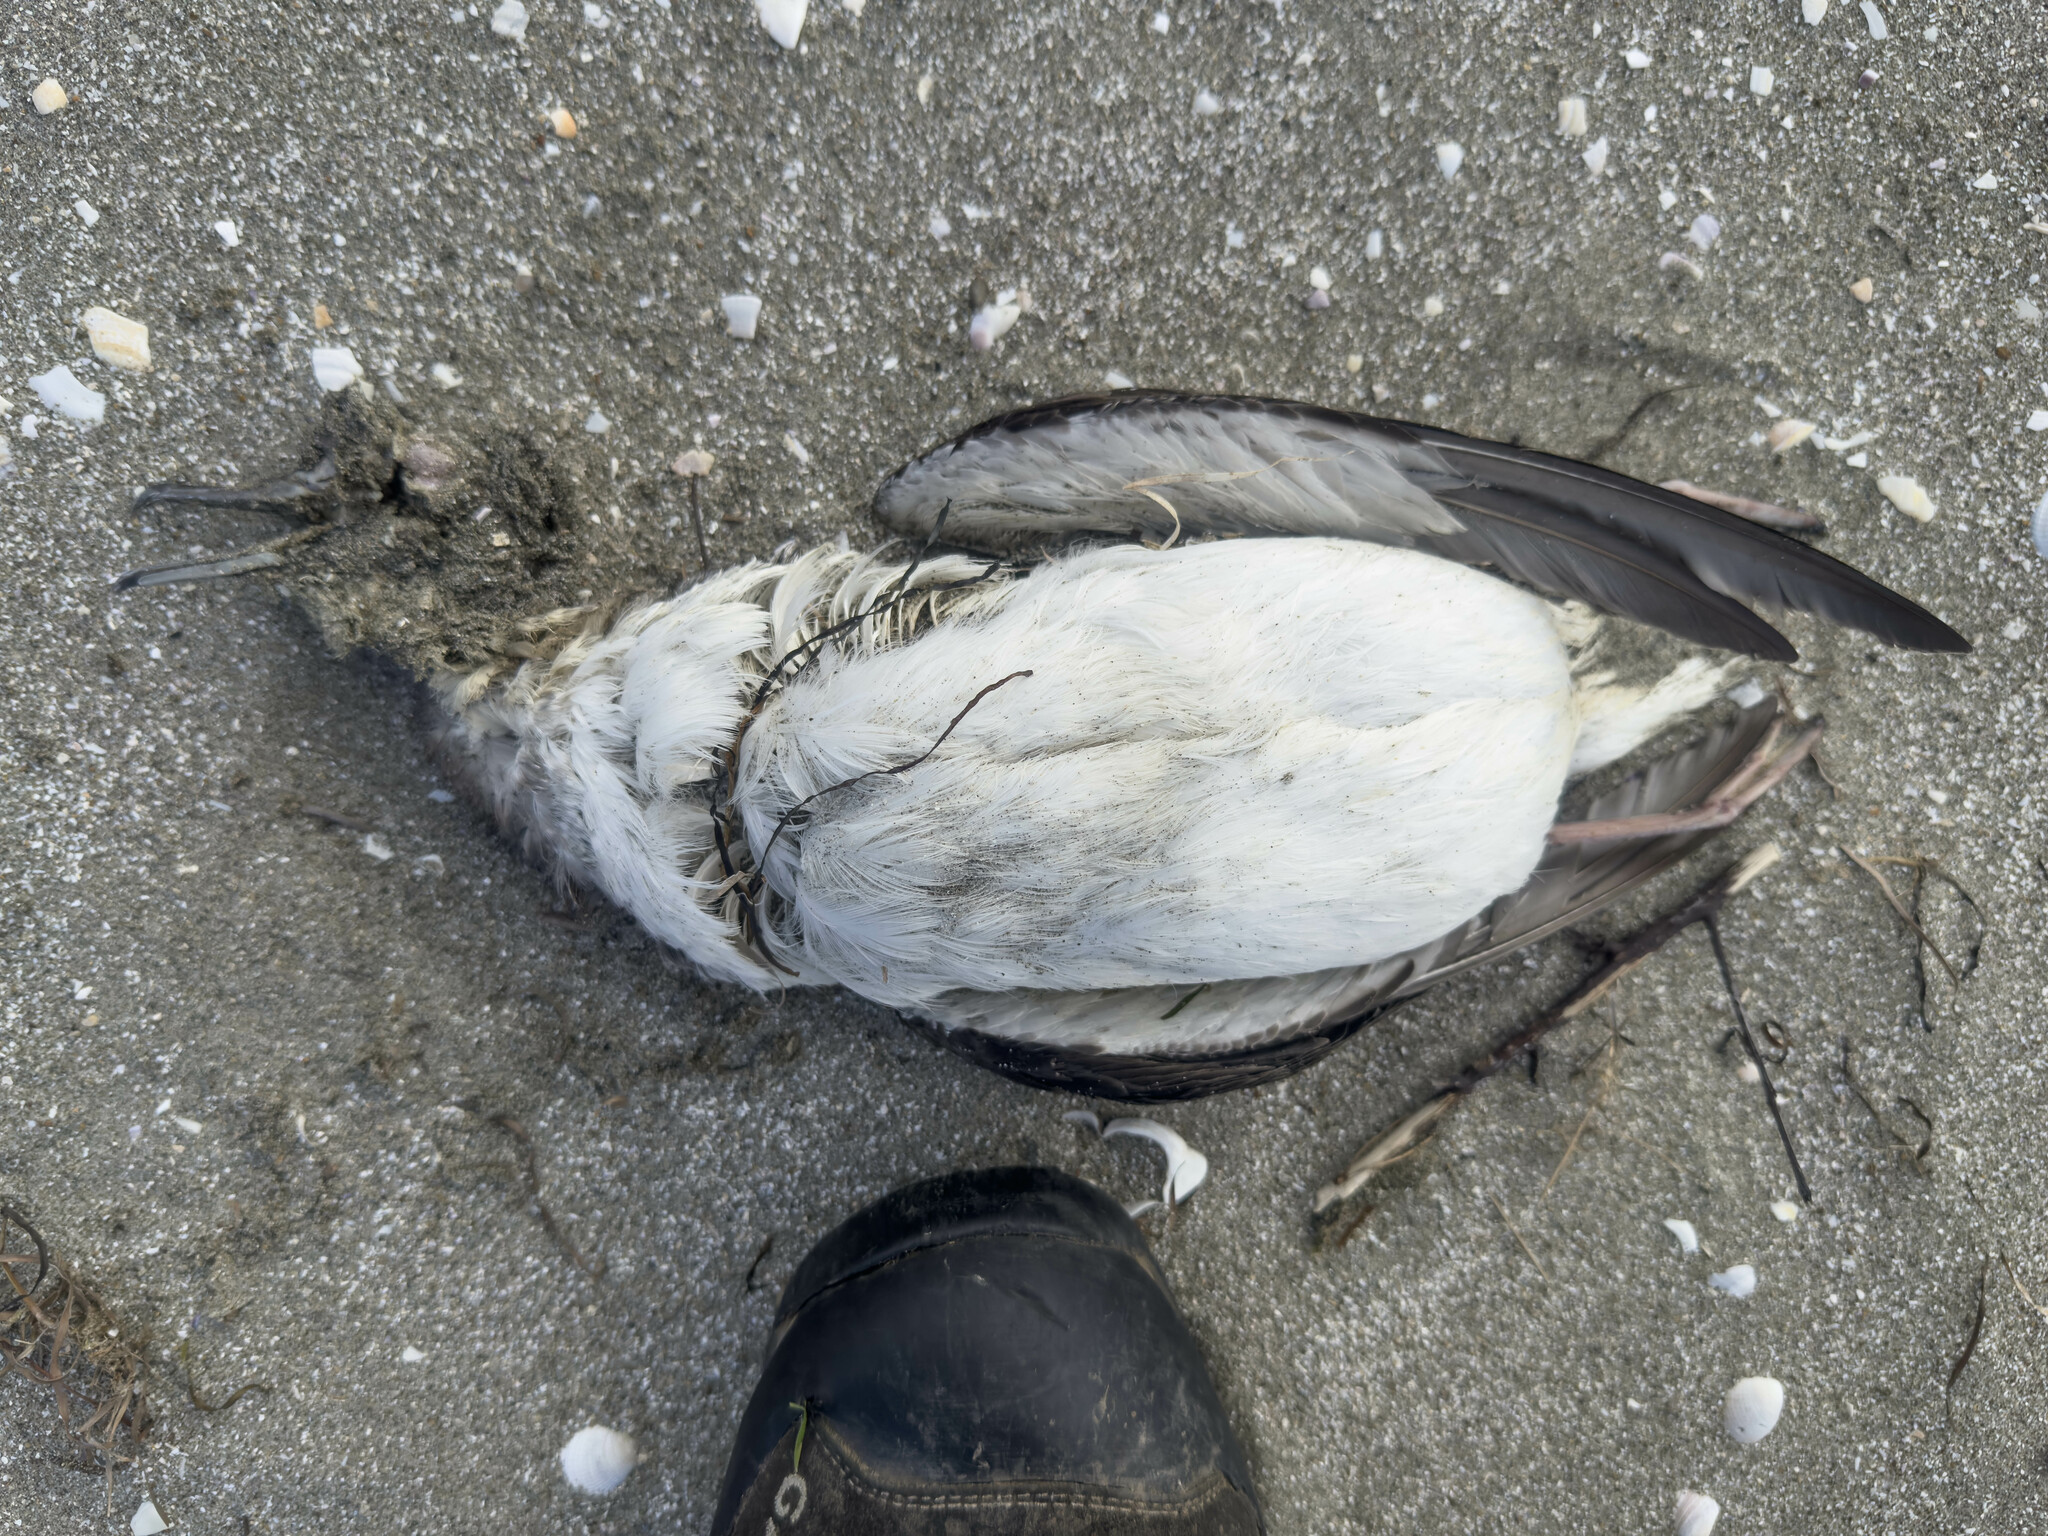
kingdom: Animalia
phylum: Chordata
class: Aves
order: Procellariiformes
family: Procellariidae
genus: Puffinus
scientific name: Puffinus gavia
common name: Fluttering shearwater
